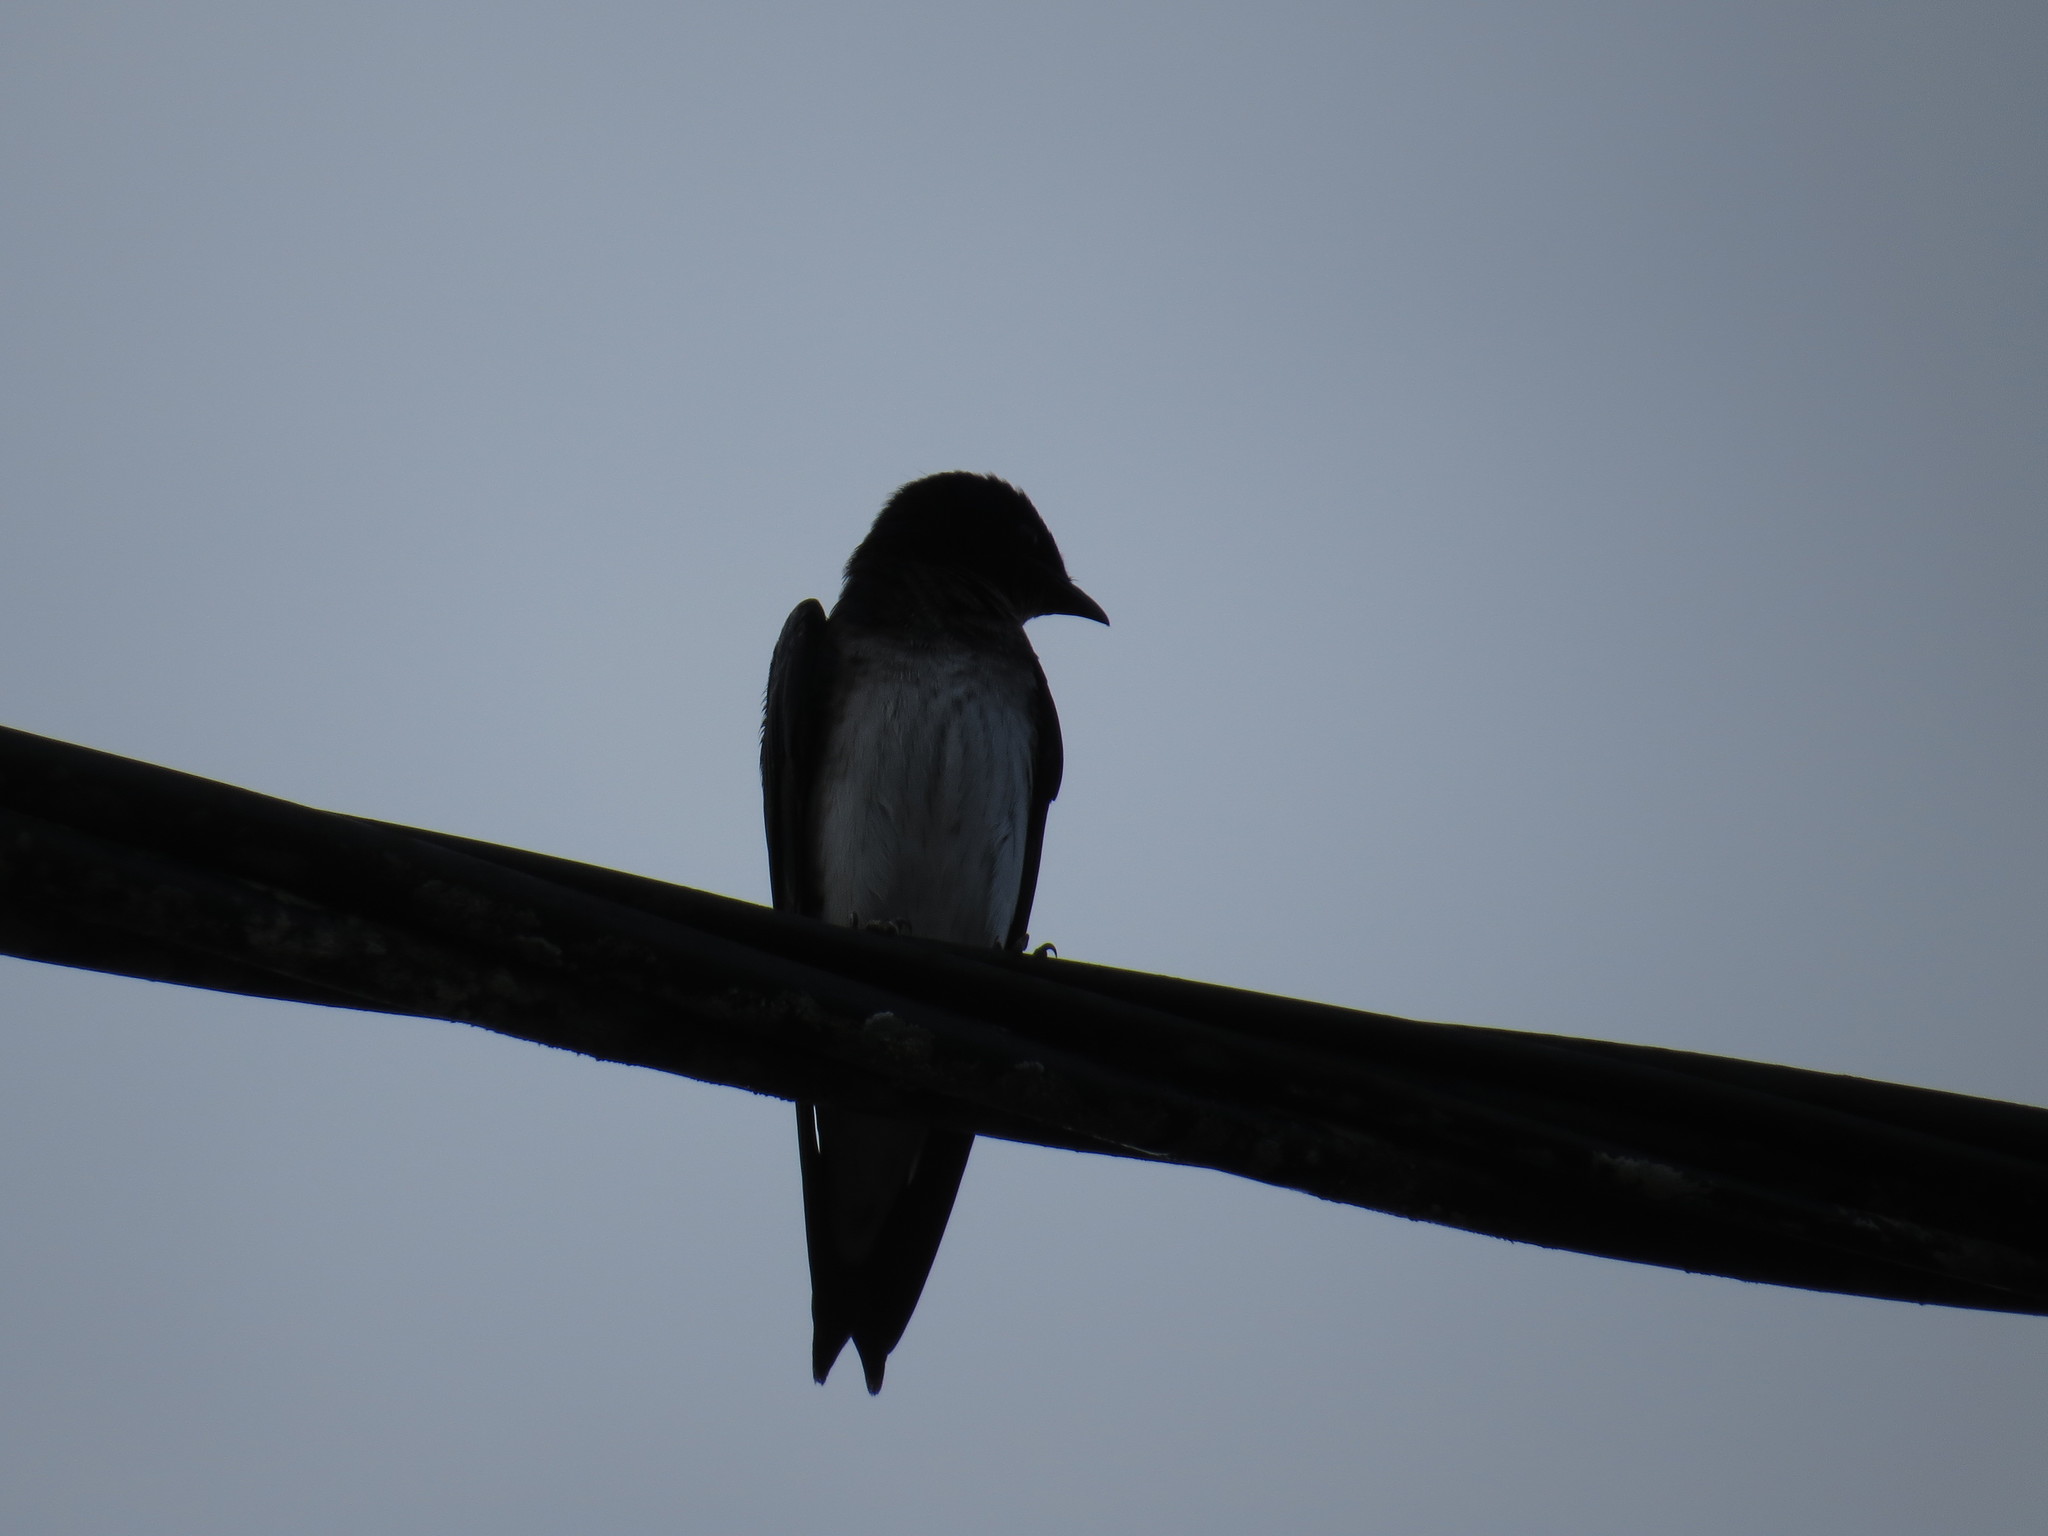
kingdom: Animalia
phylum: Chordata
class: Aves
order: Passeriformes
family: Hirundinidae
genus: Progne
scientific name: Progne chalybea
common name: Grey-breasted martin
